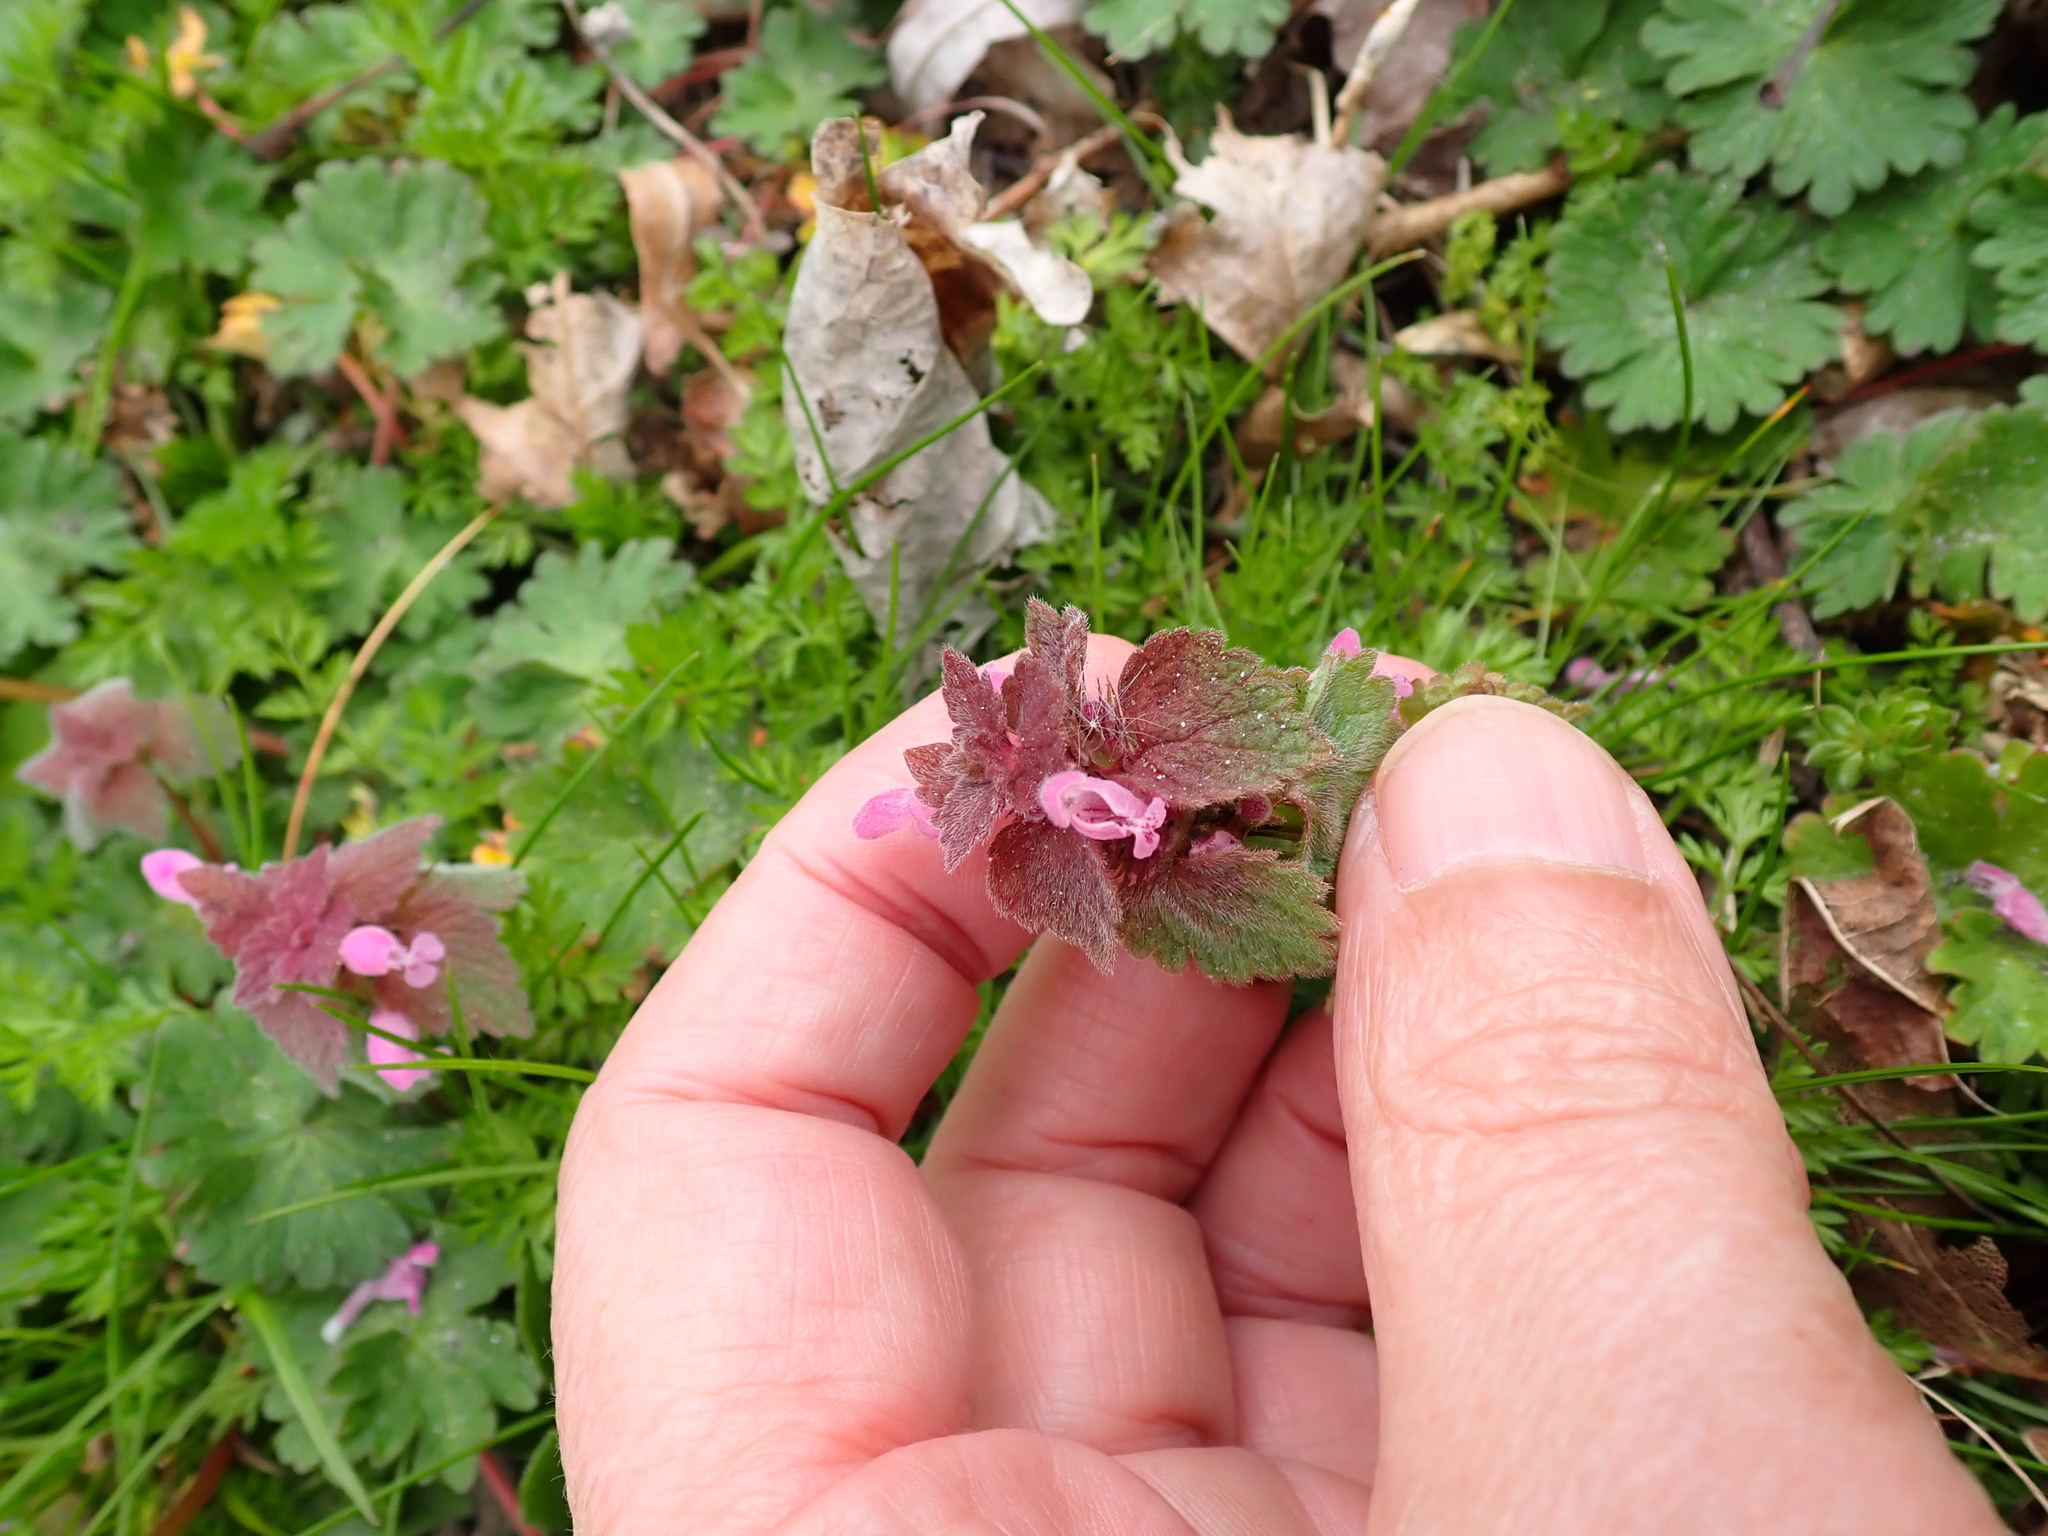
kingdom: Plantae
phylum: Tracheophyta
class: Magnoliopsida
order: Lamiales
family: Lamiaceae
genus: Lamium
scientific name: Lamium purpureum
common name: Red dead-nettle
